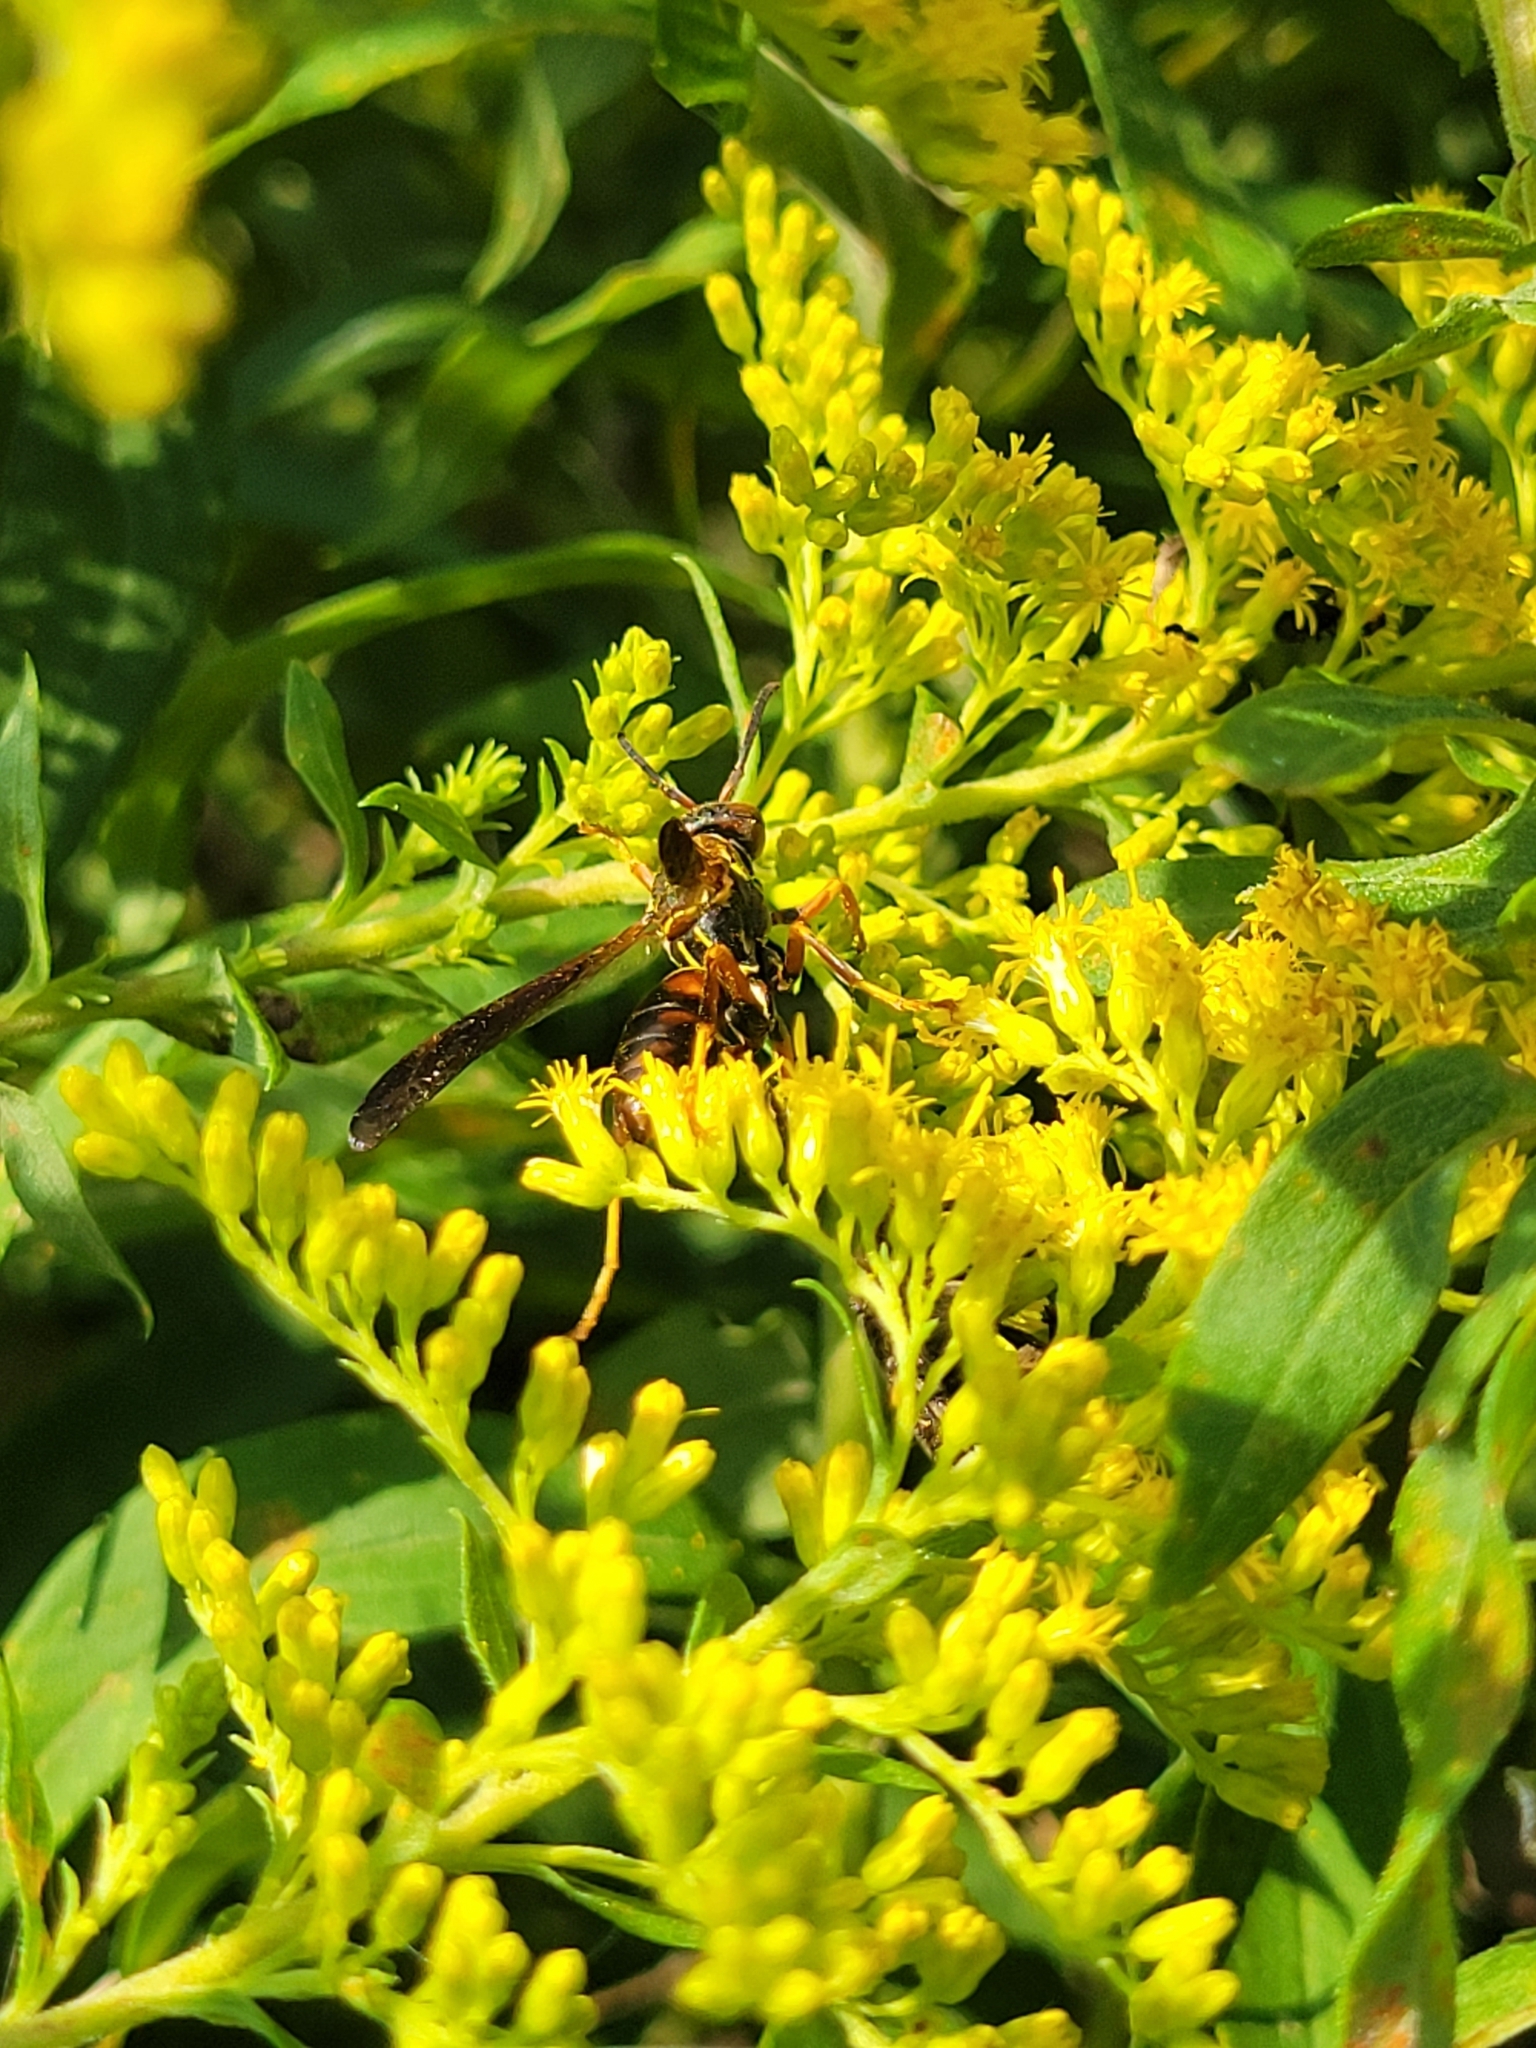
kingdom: Animalia
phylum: Arthropoda
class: Insecta
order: Hymenoptera
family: Eumenidae
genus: Polistes
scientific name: Polistes fuscatus
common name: Dark paper wasp
